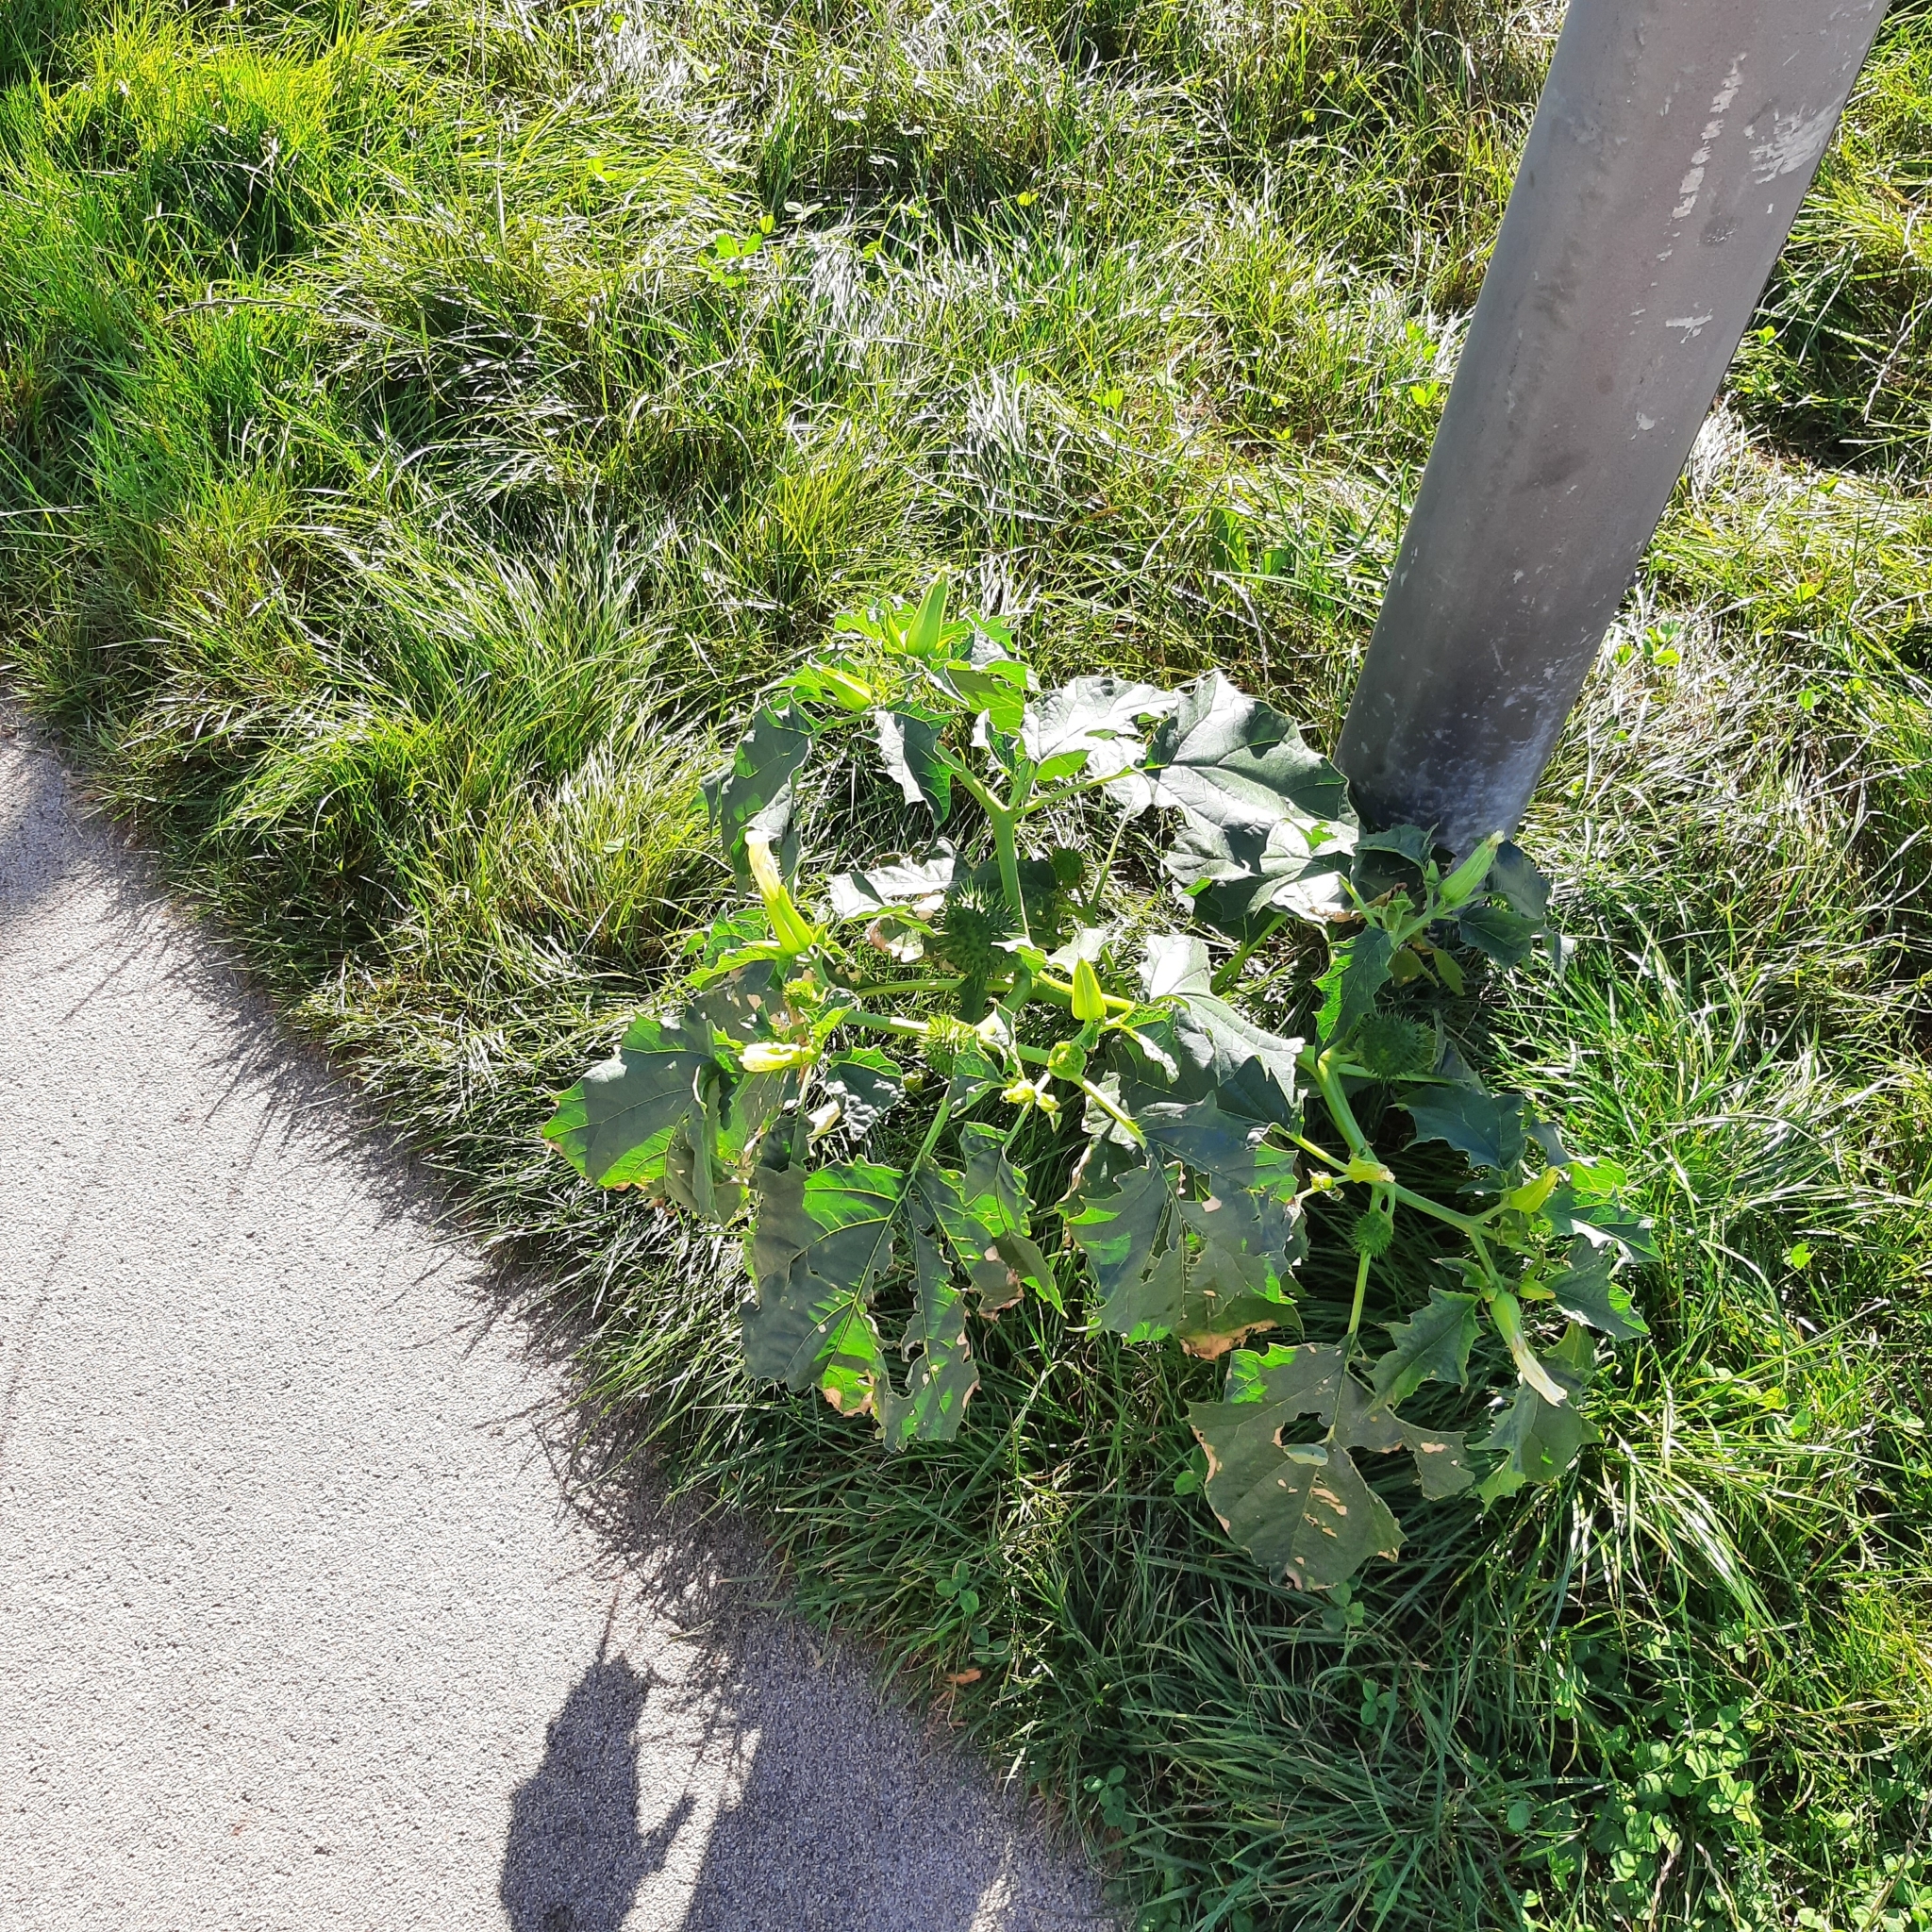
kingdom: Plantae
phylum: Tracheophyta
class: Magnoliopsida
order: Solanales
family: Solanaceae
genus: Datura
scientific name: Datura stramonium
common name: Thorn-apple
